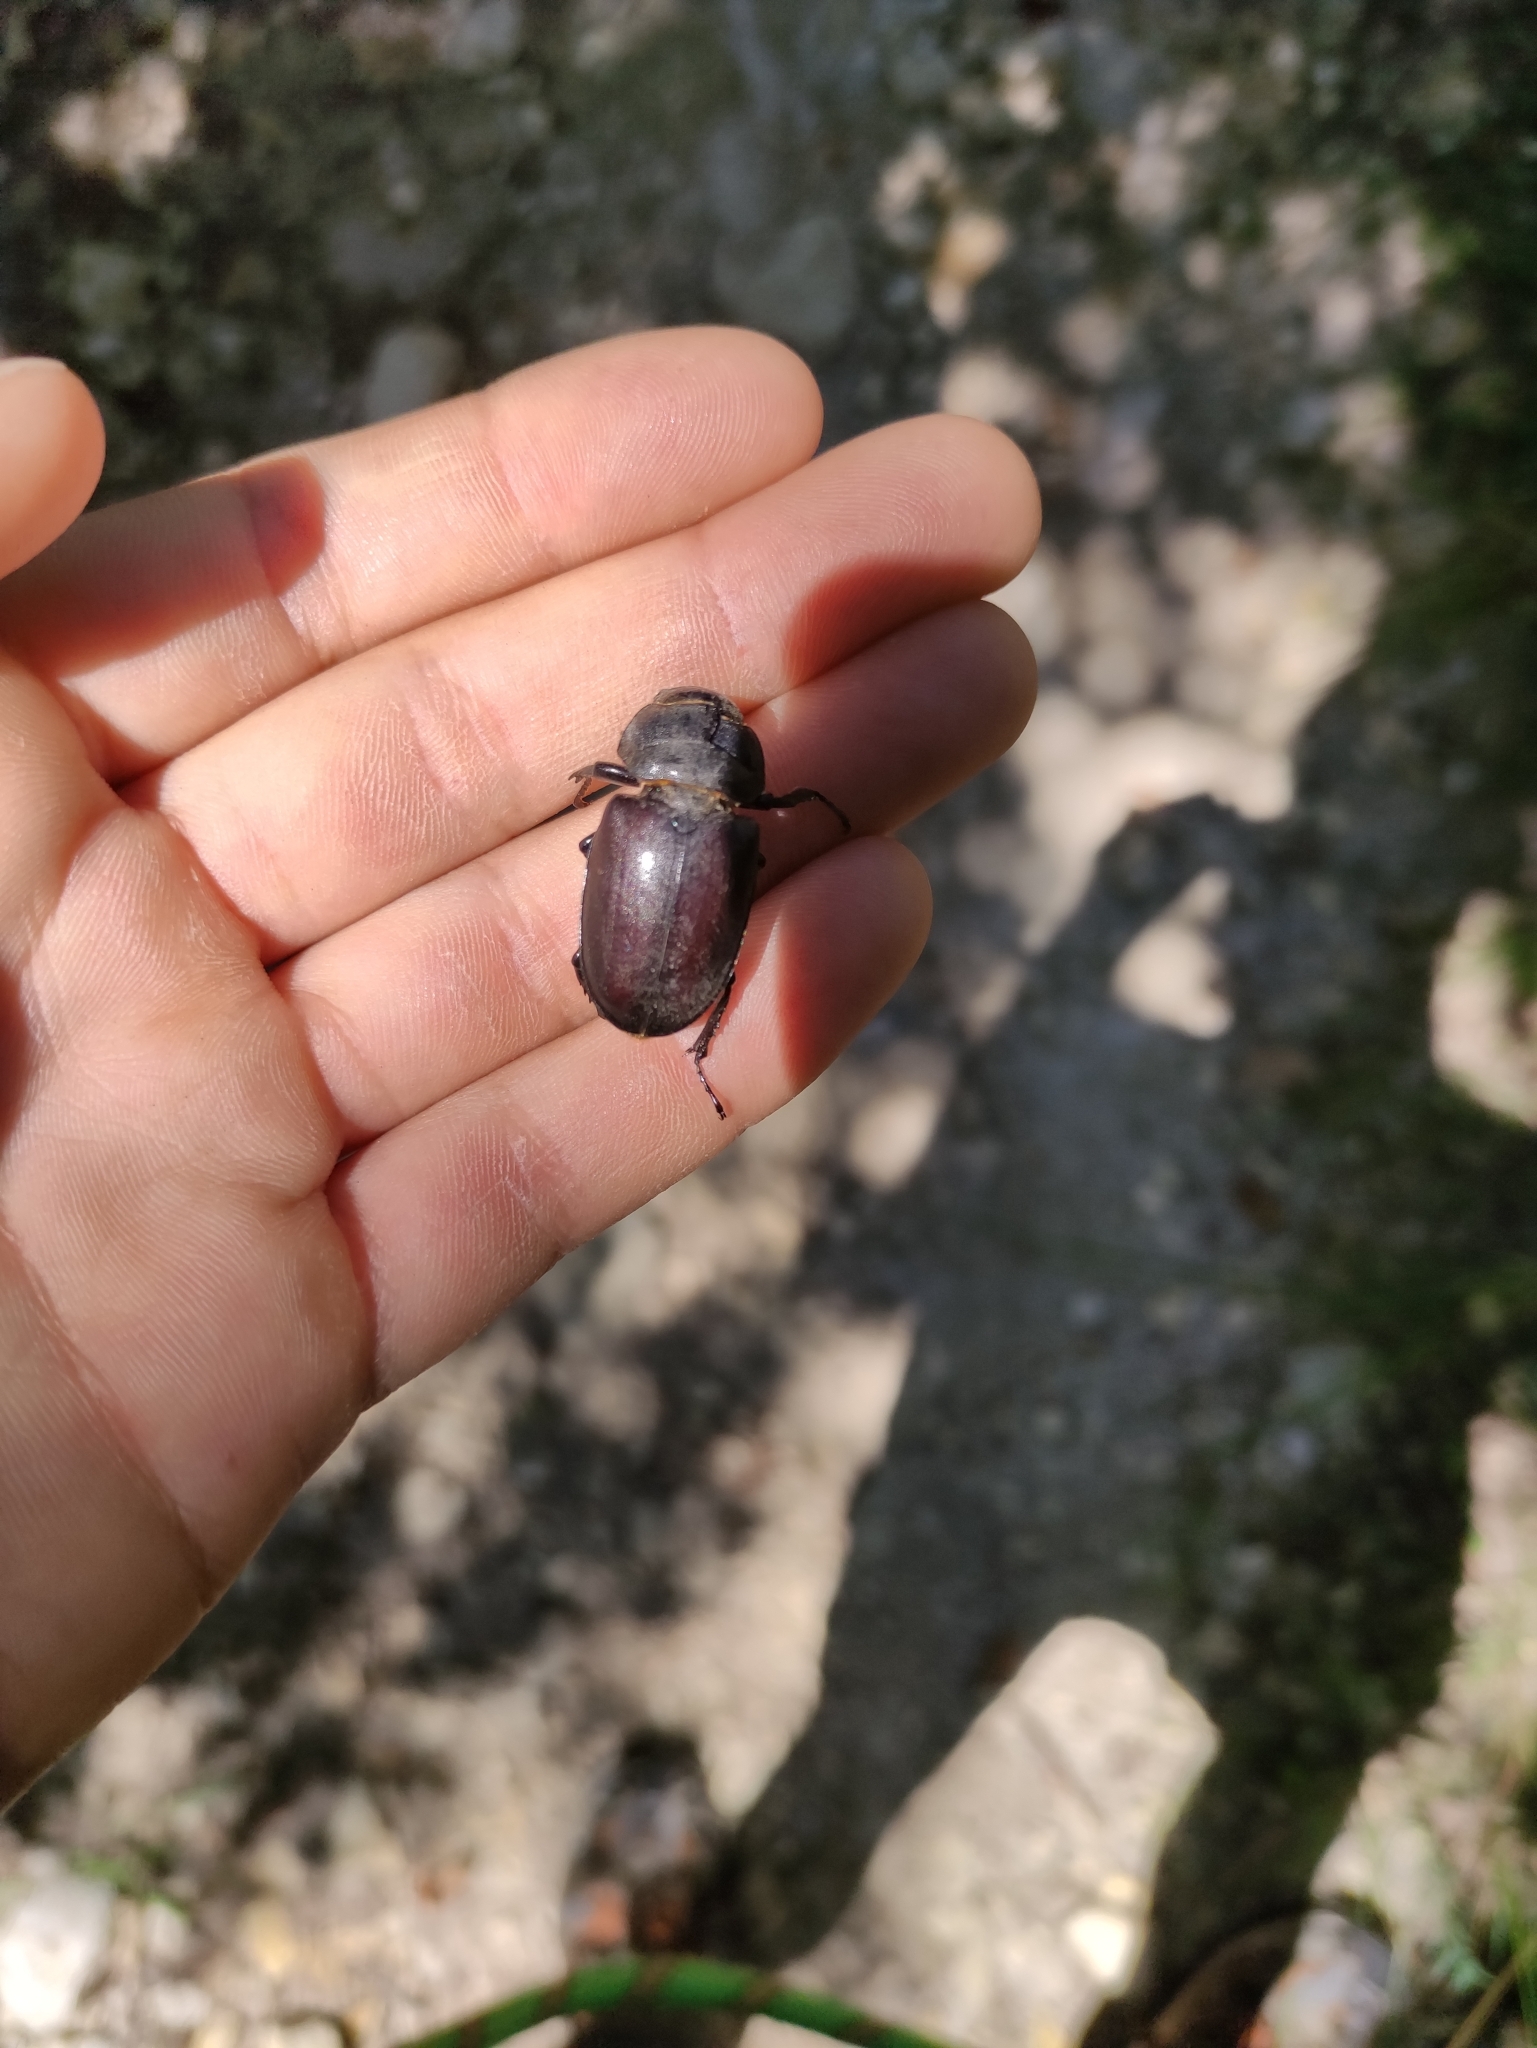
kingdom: Animalia
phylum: Arthropoda
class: Insecta
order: Coleoptera
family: Lucanidae
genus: Lucanus
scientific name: Lucanus cervus
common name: Stag beetle
